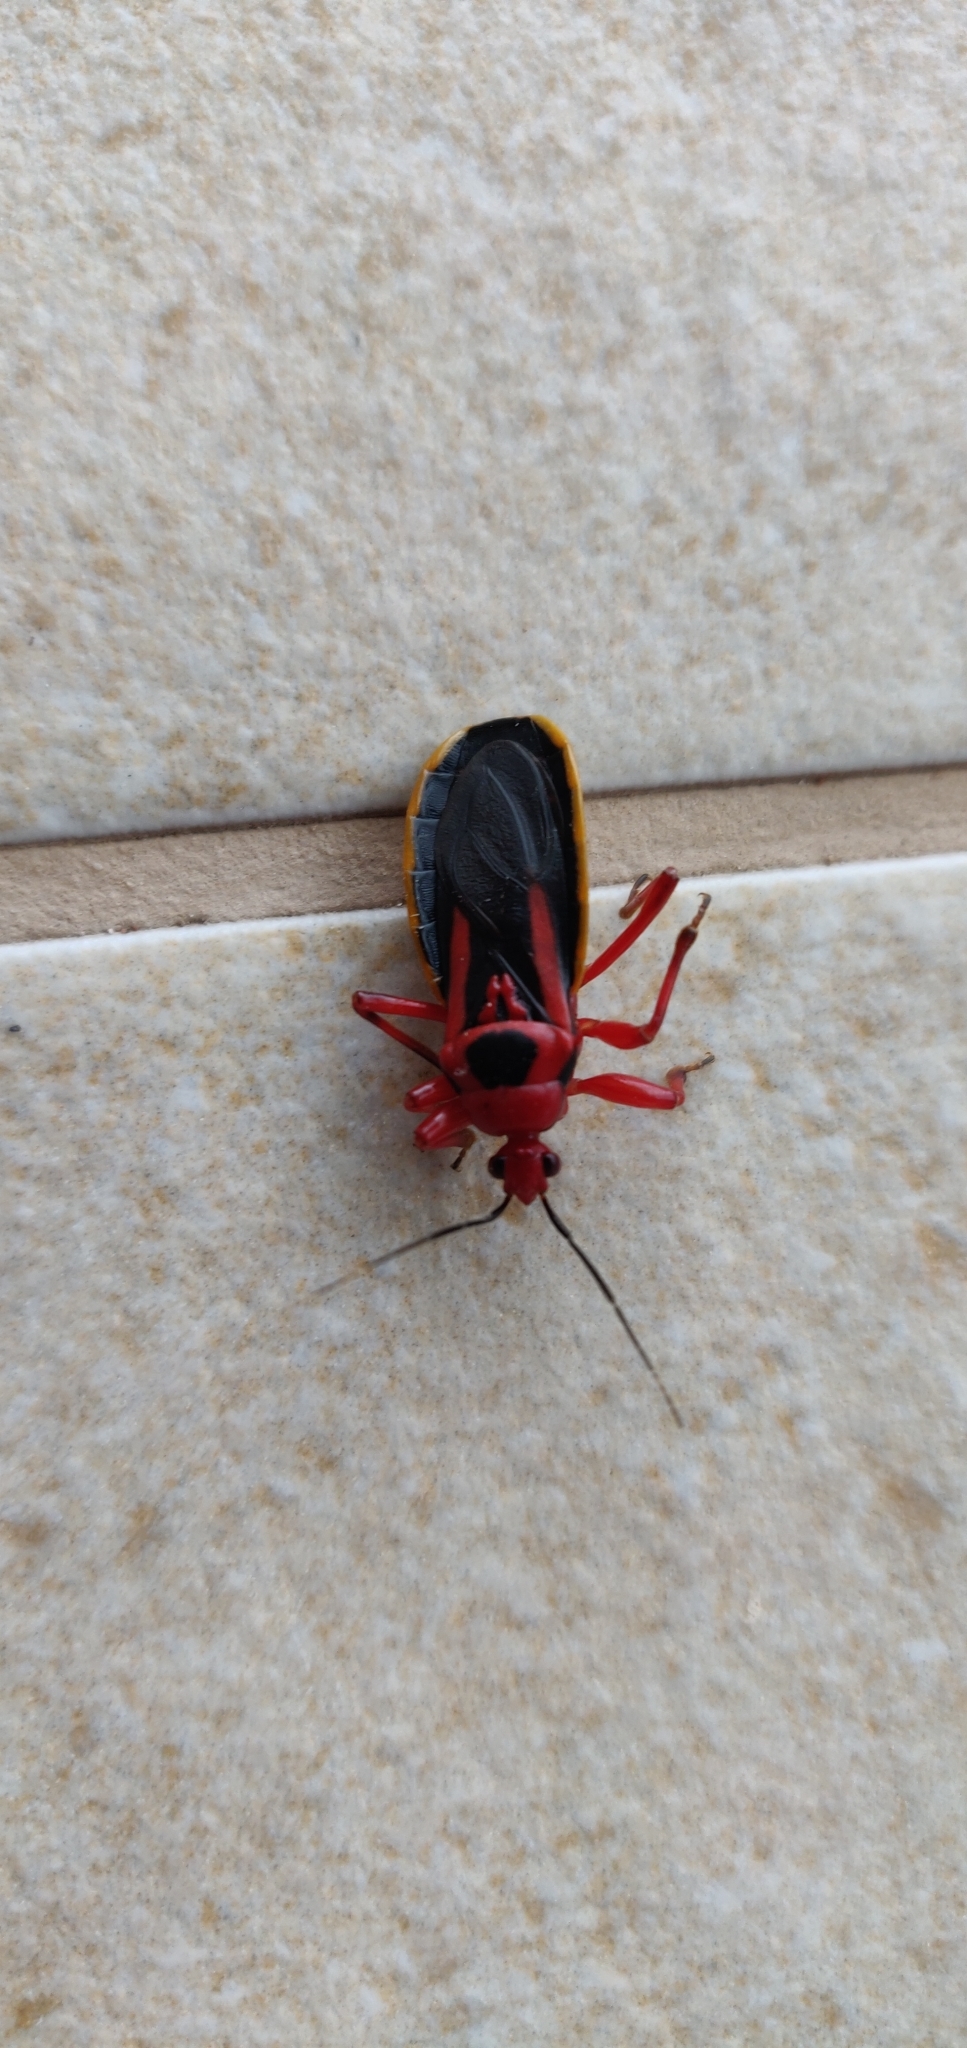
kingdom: Animalia
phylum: Arthropoda
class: Insecta
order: Hemiptera
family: Reduviidae
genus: Brontostoma
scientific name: Brontostoma discus
